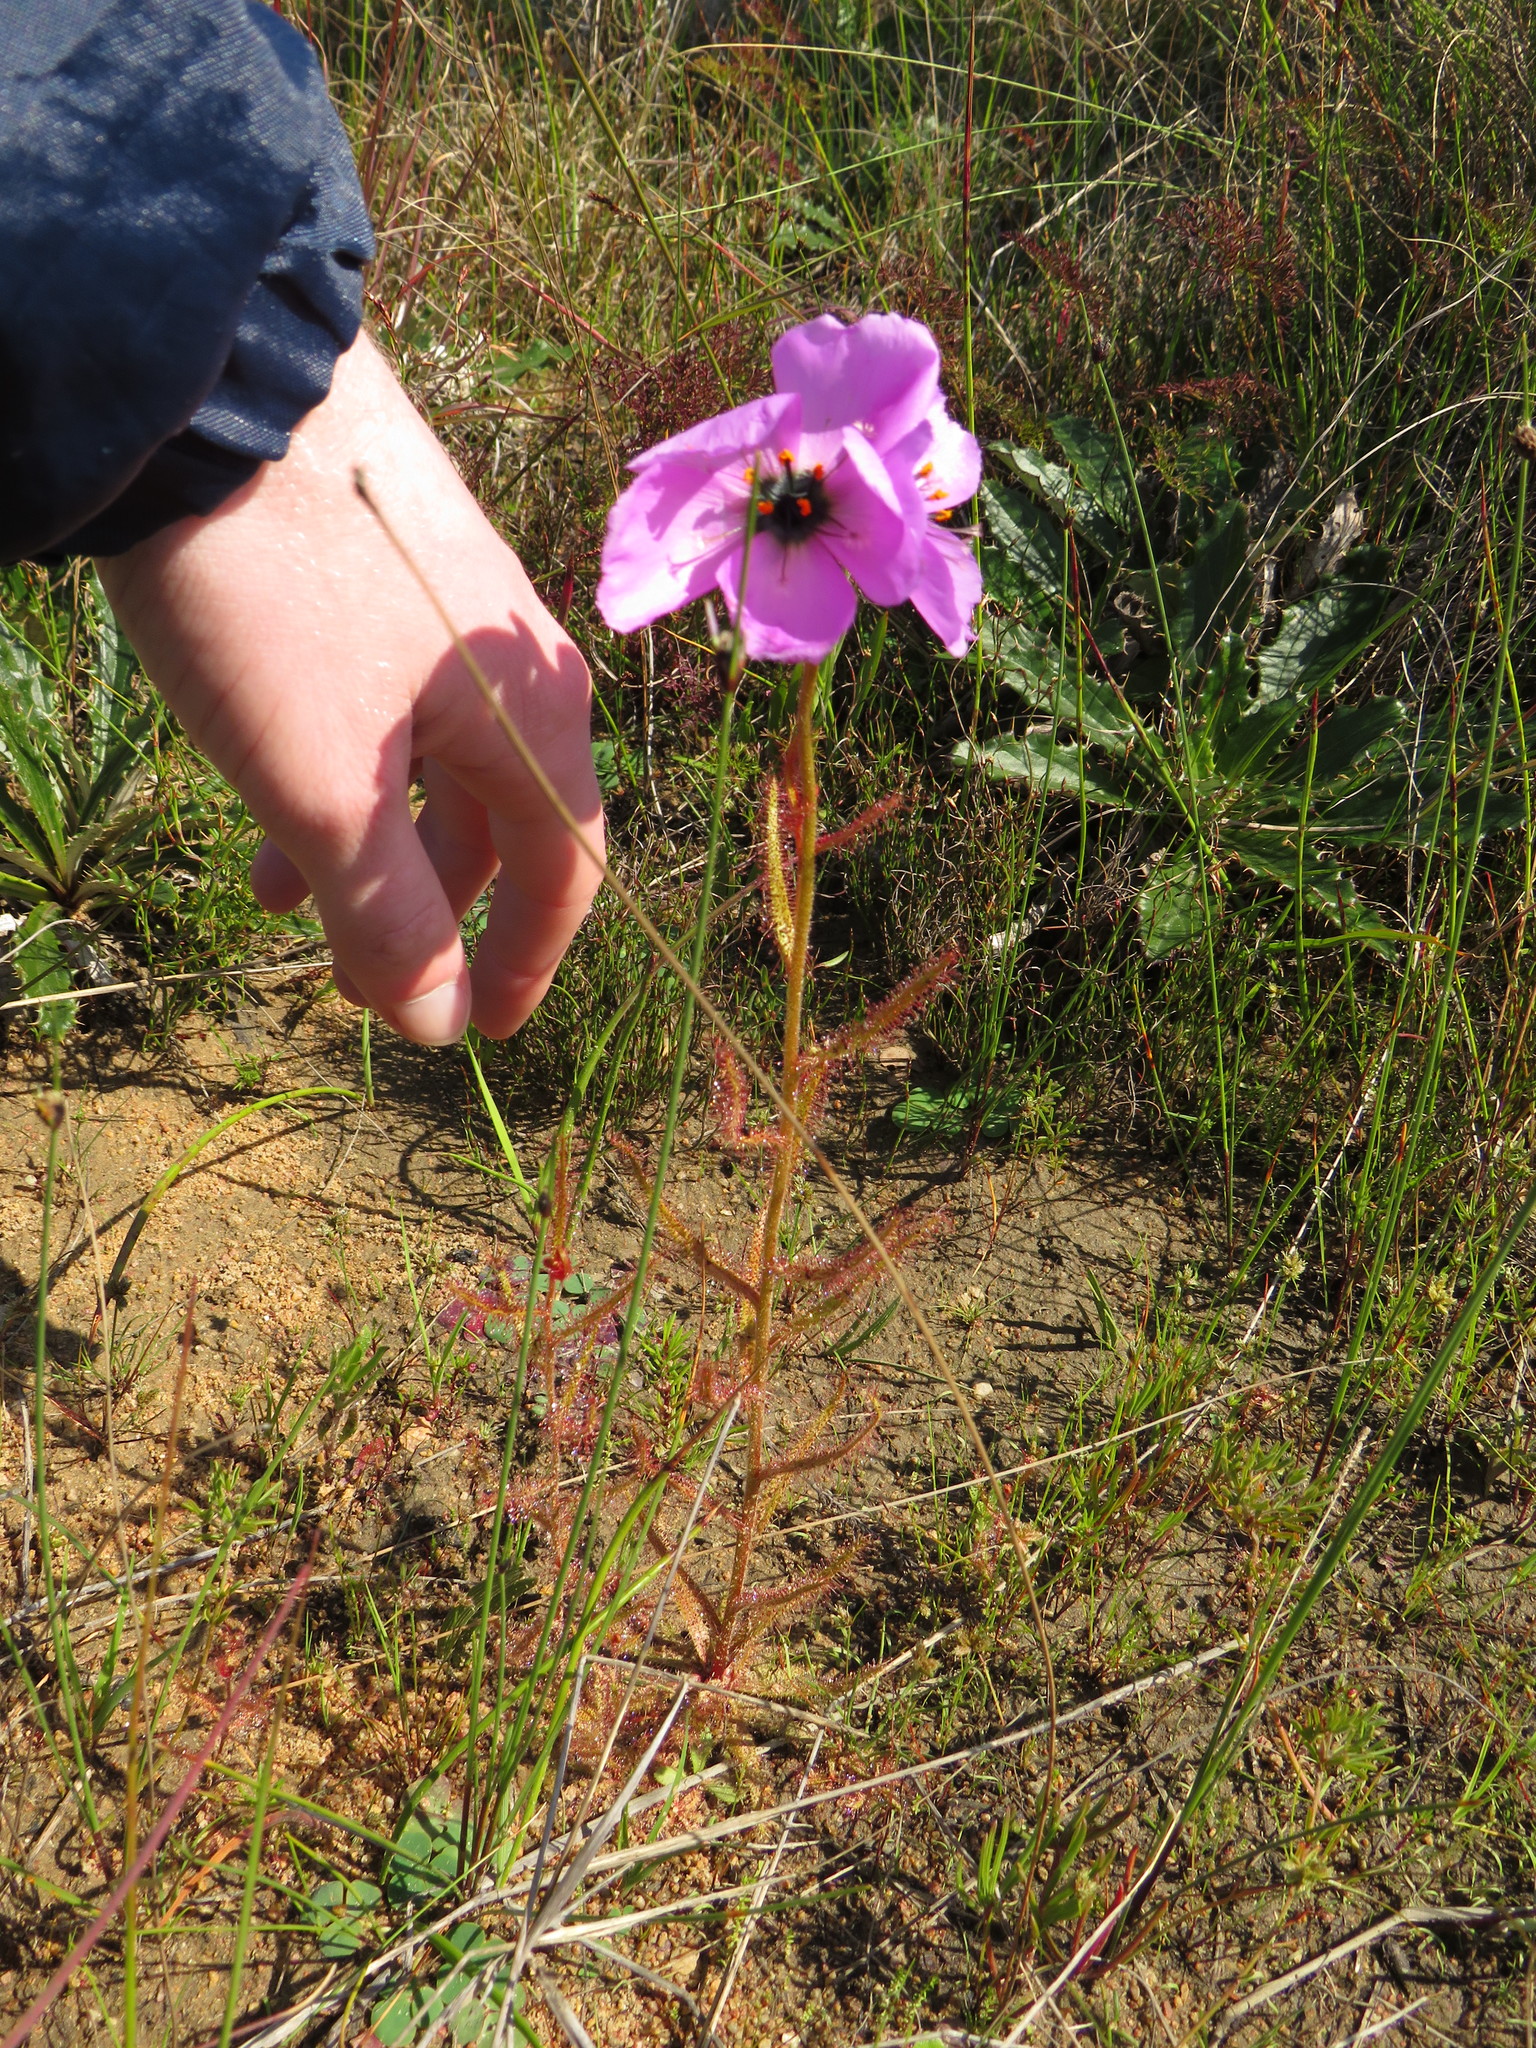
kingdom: Plantae
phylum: Tracheophyta
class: Magnoliopsida
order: Caryophyllales
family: Droseraceae
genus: Drosera
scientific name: Drosera cistiflora
